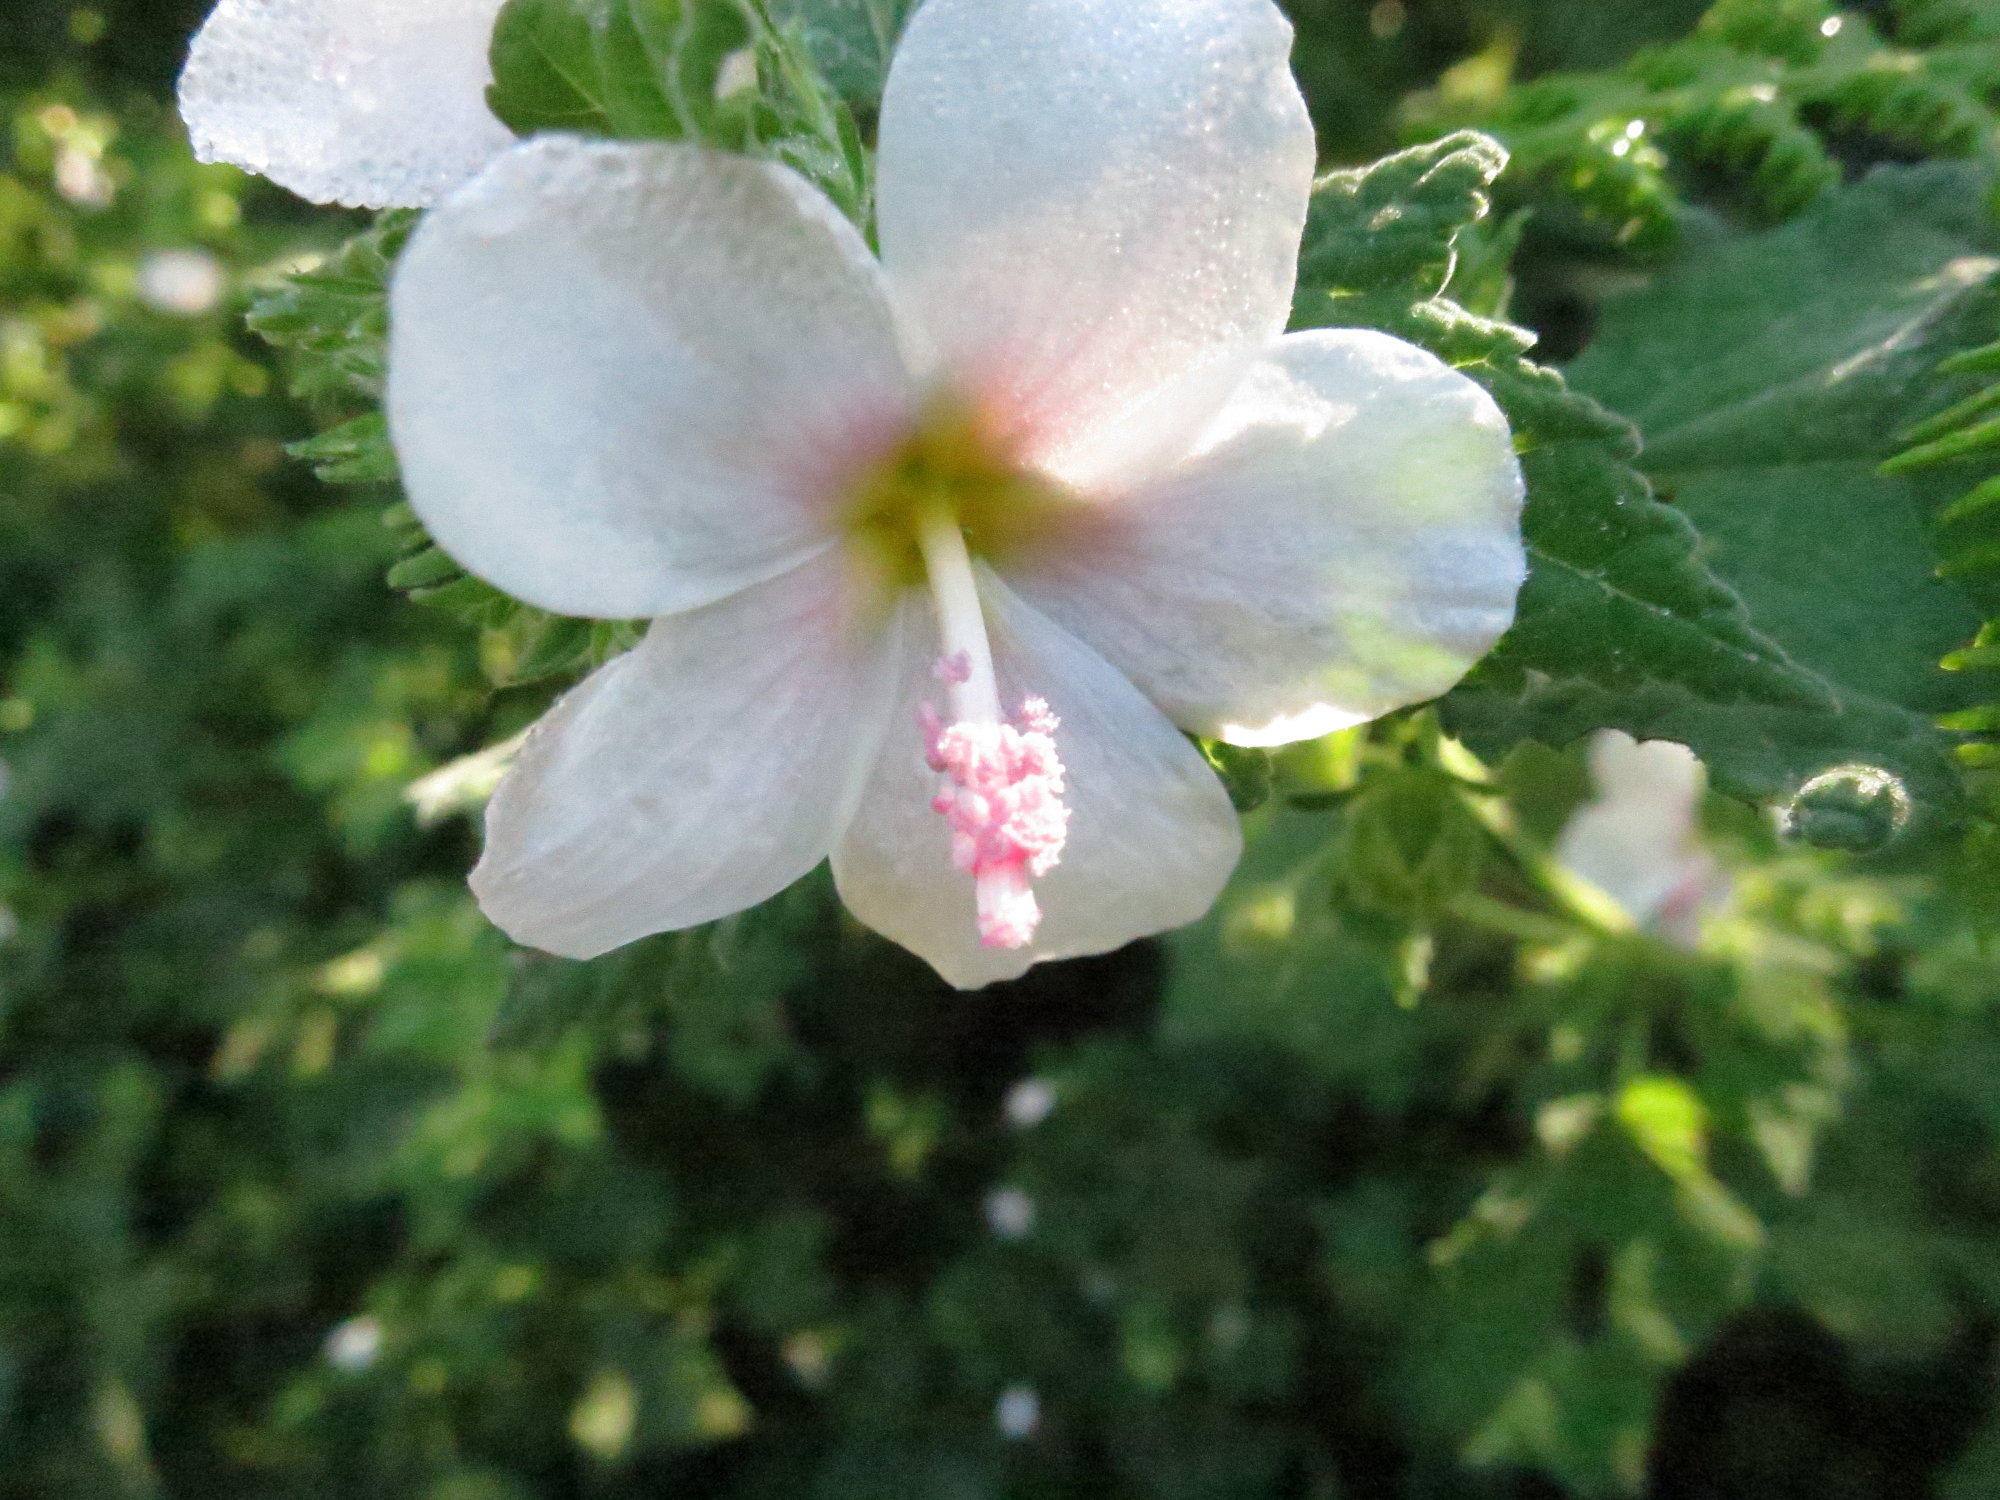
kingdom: Plantae
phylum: Tracheophyta
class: Magnoliopsida
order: Malvales
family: Malvaceae
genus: Pavonia
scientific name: Pavonia columella
